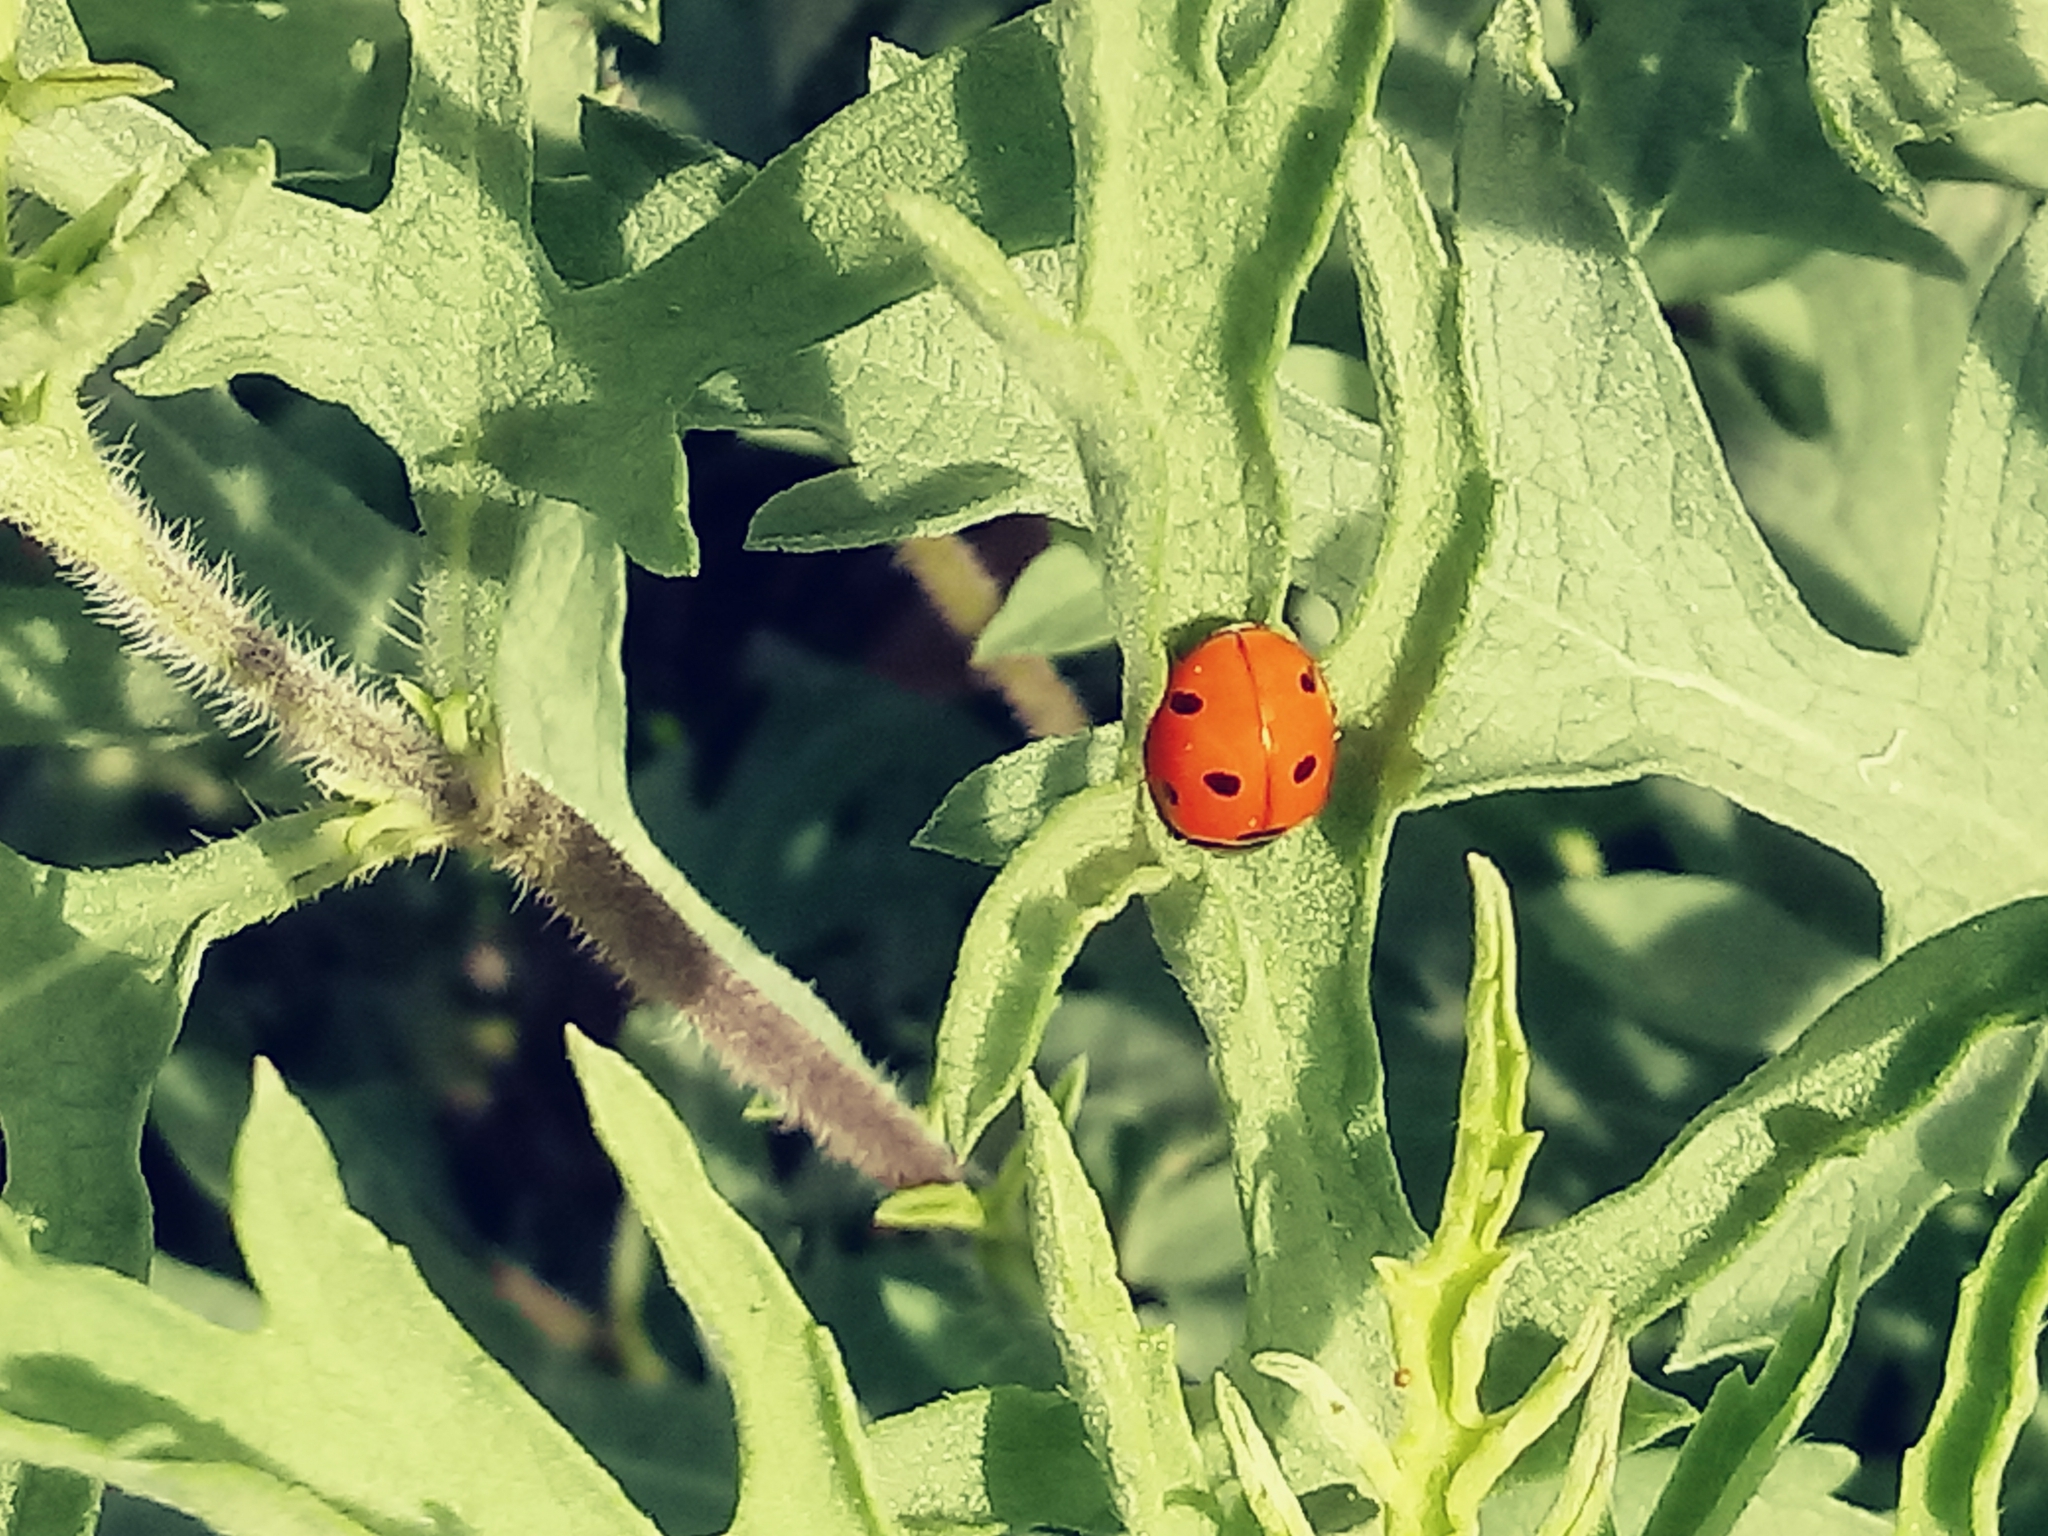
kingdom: Animalia
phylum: Arthropoda
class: Insecta
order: Coleoptera
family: Coccinellidae
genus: Coccinella
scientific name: Coccinella septempunctata
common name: Sevenspotted lady beetle
